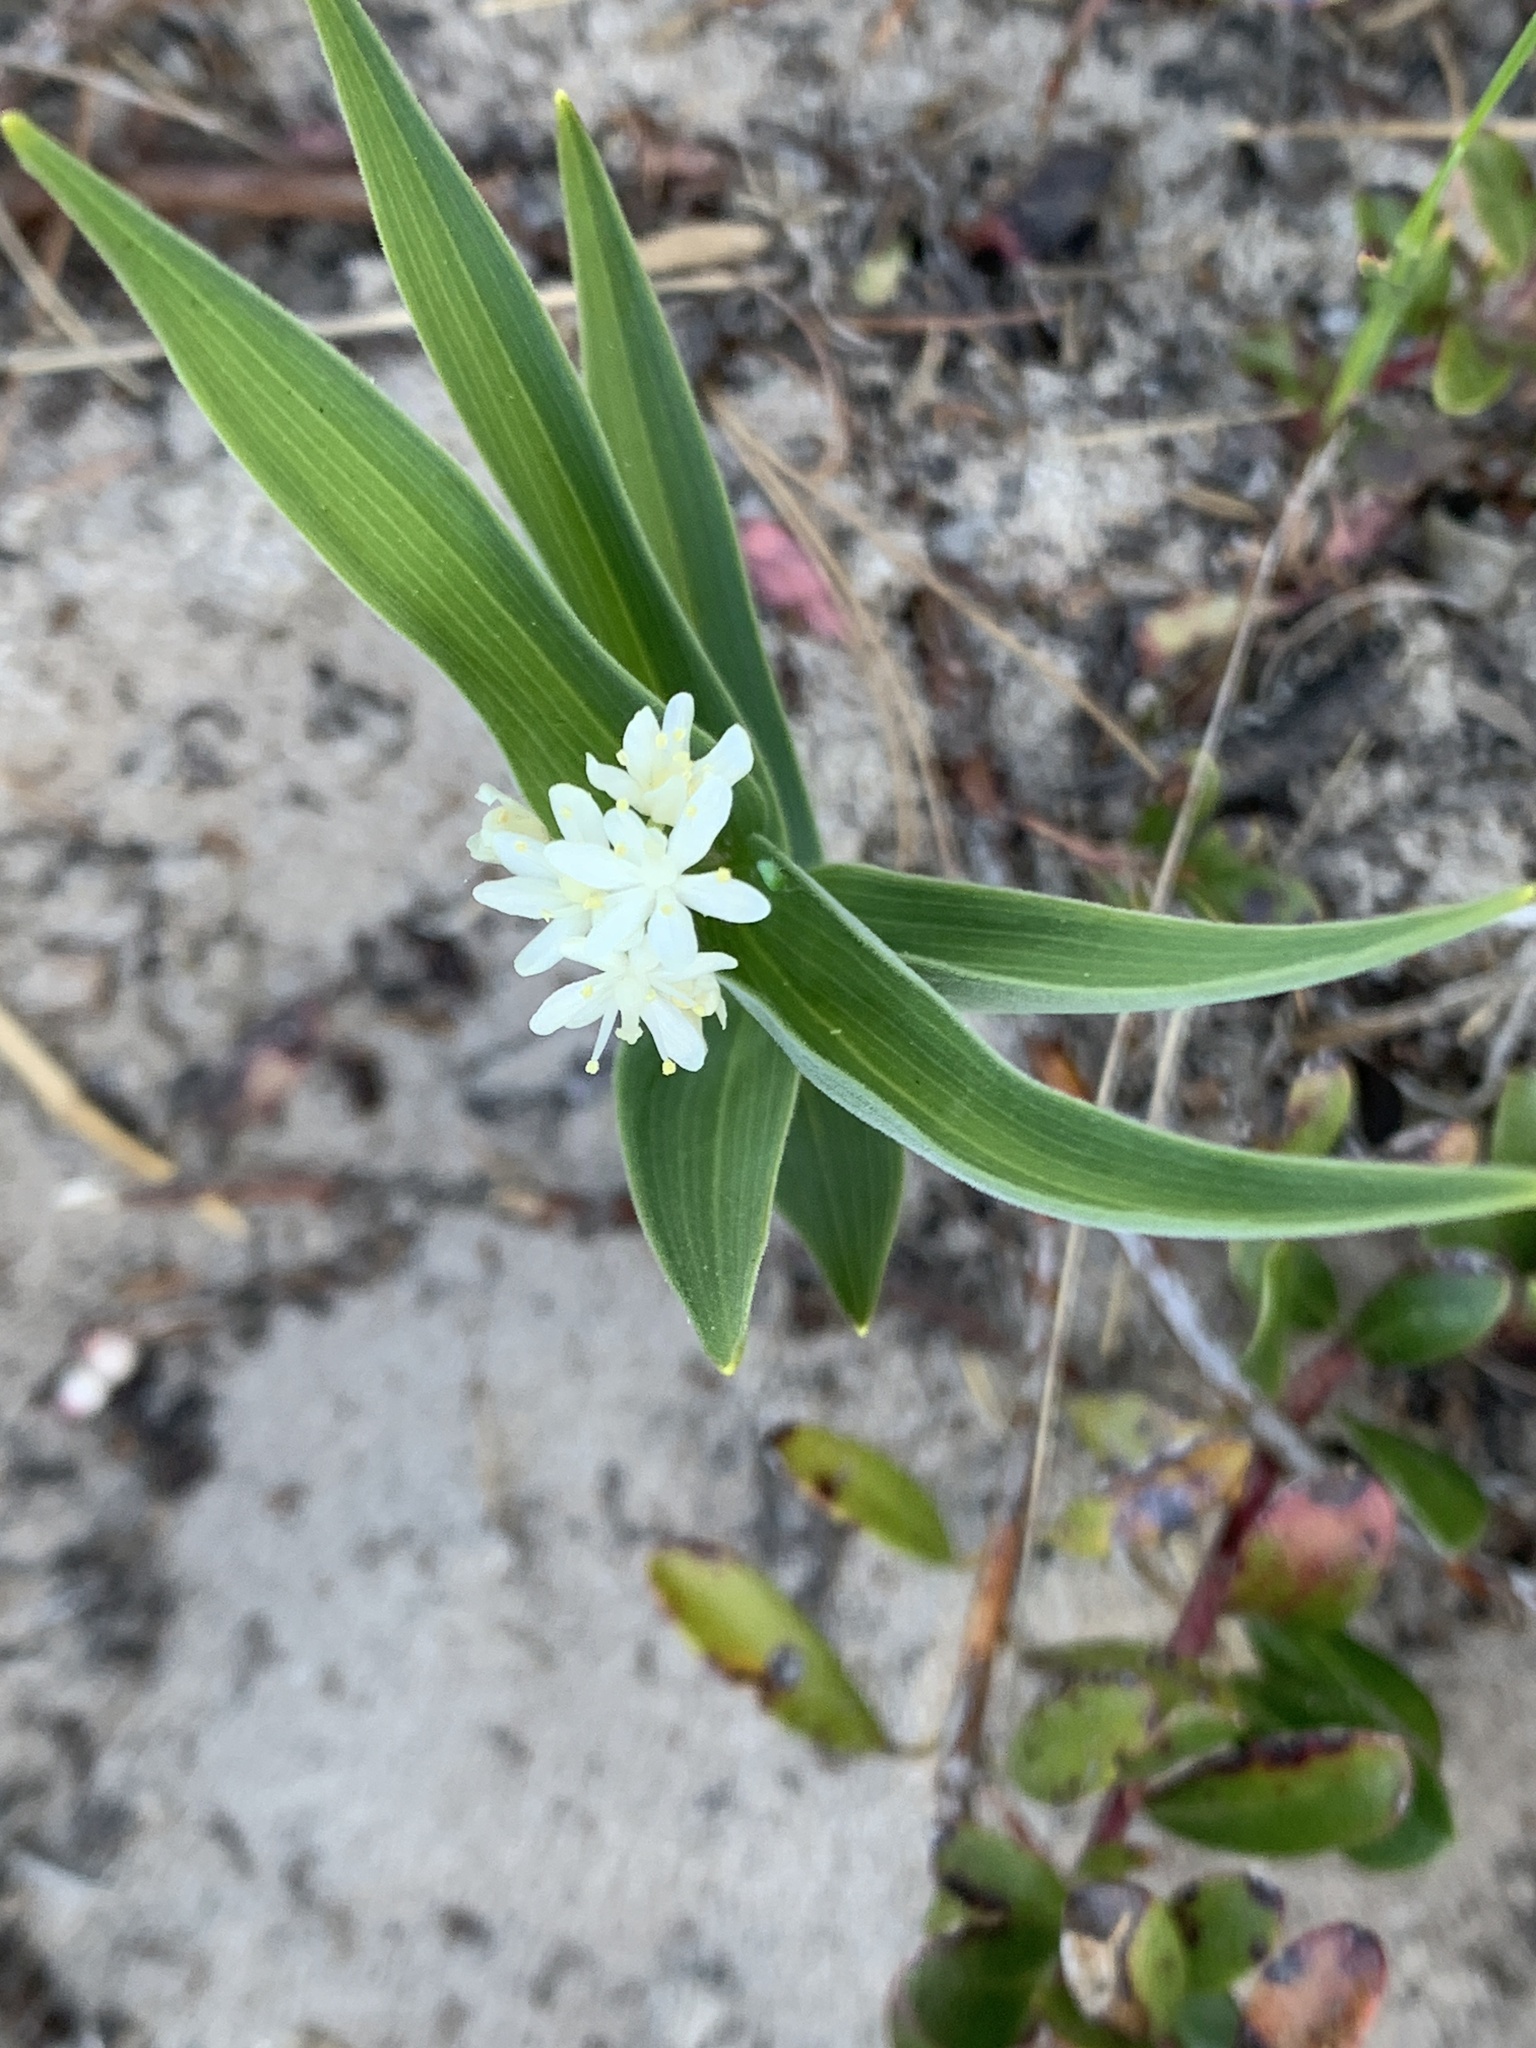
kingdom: Plantae
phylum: Tracheophyta
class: Liliopsida
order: Asparagales
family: Asparagaceae
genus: Maianthemum
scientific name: Maianthemum stellatum
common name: Little false solomon's seal
